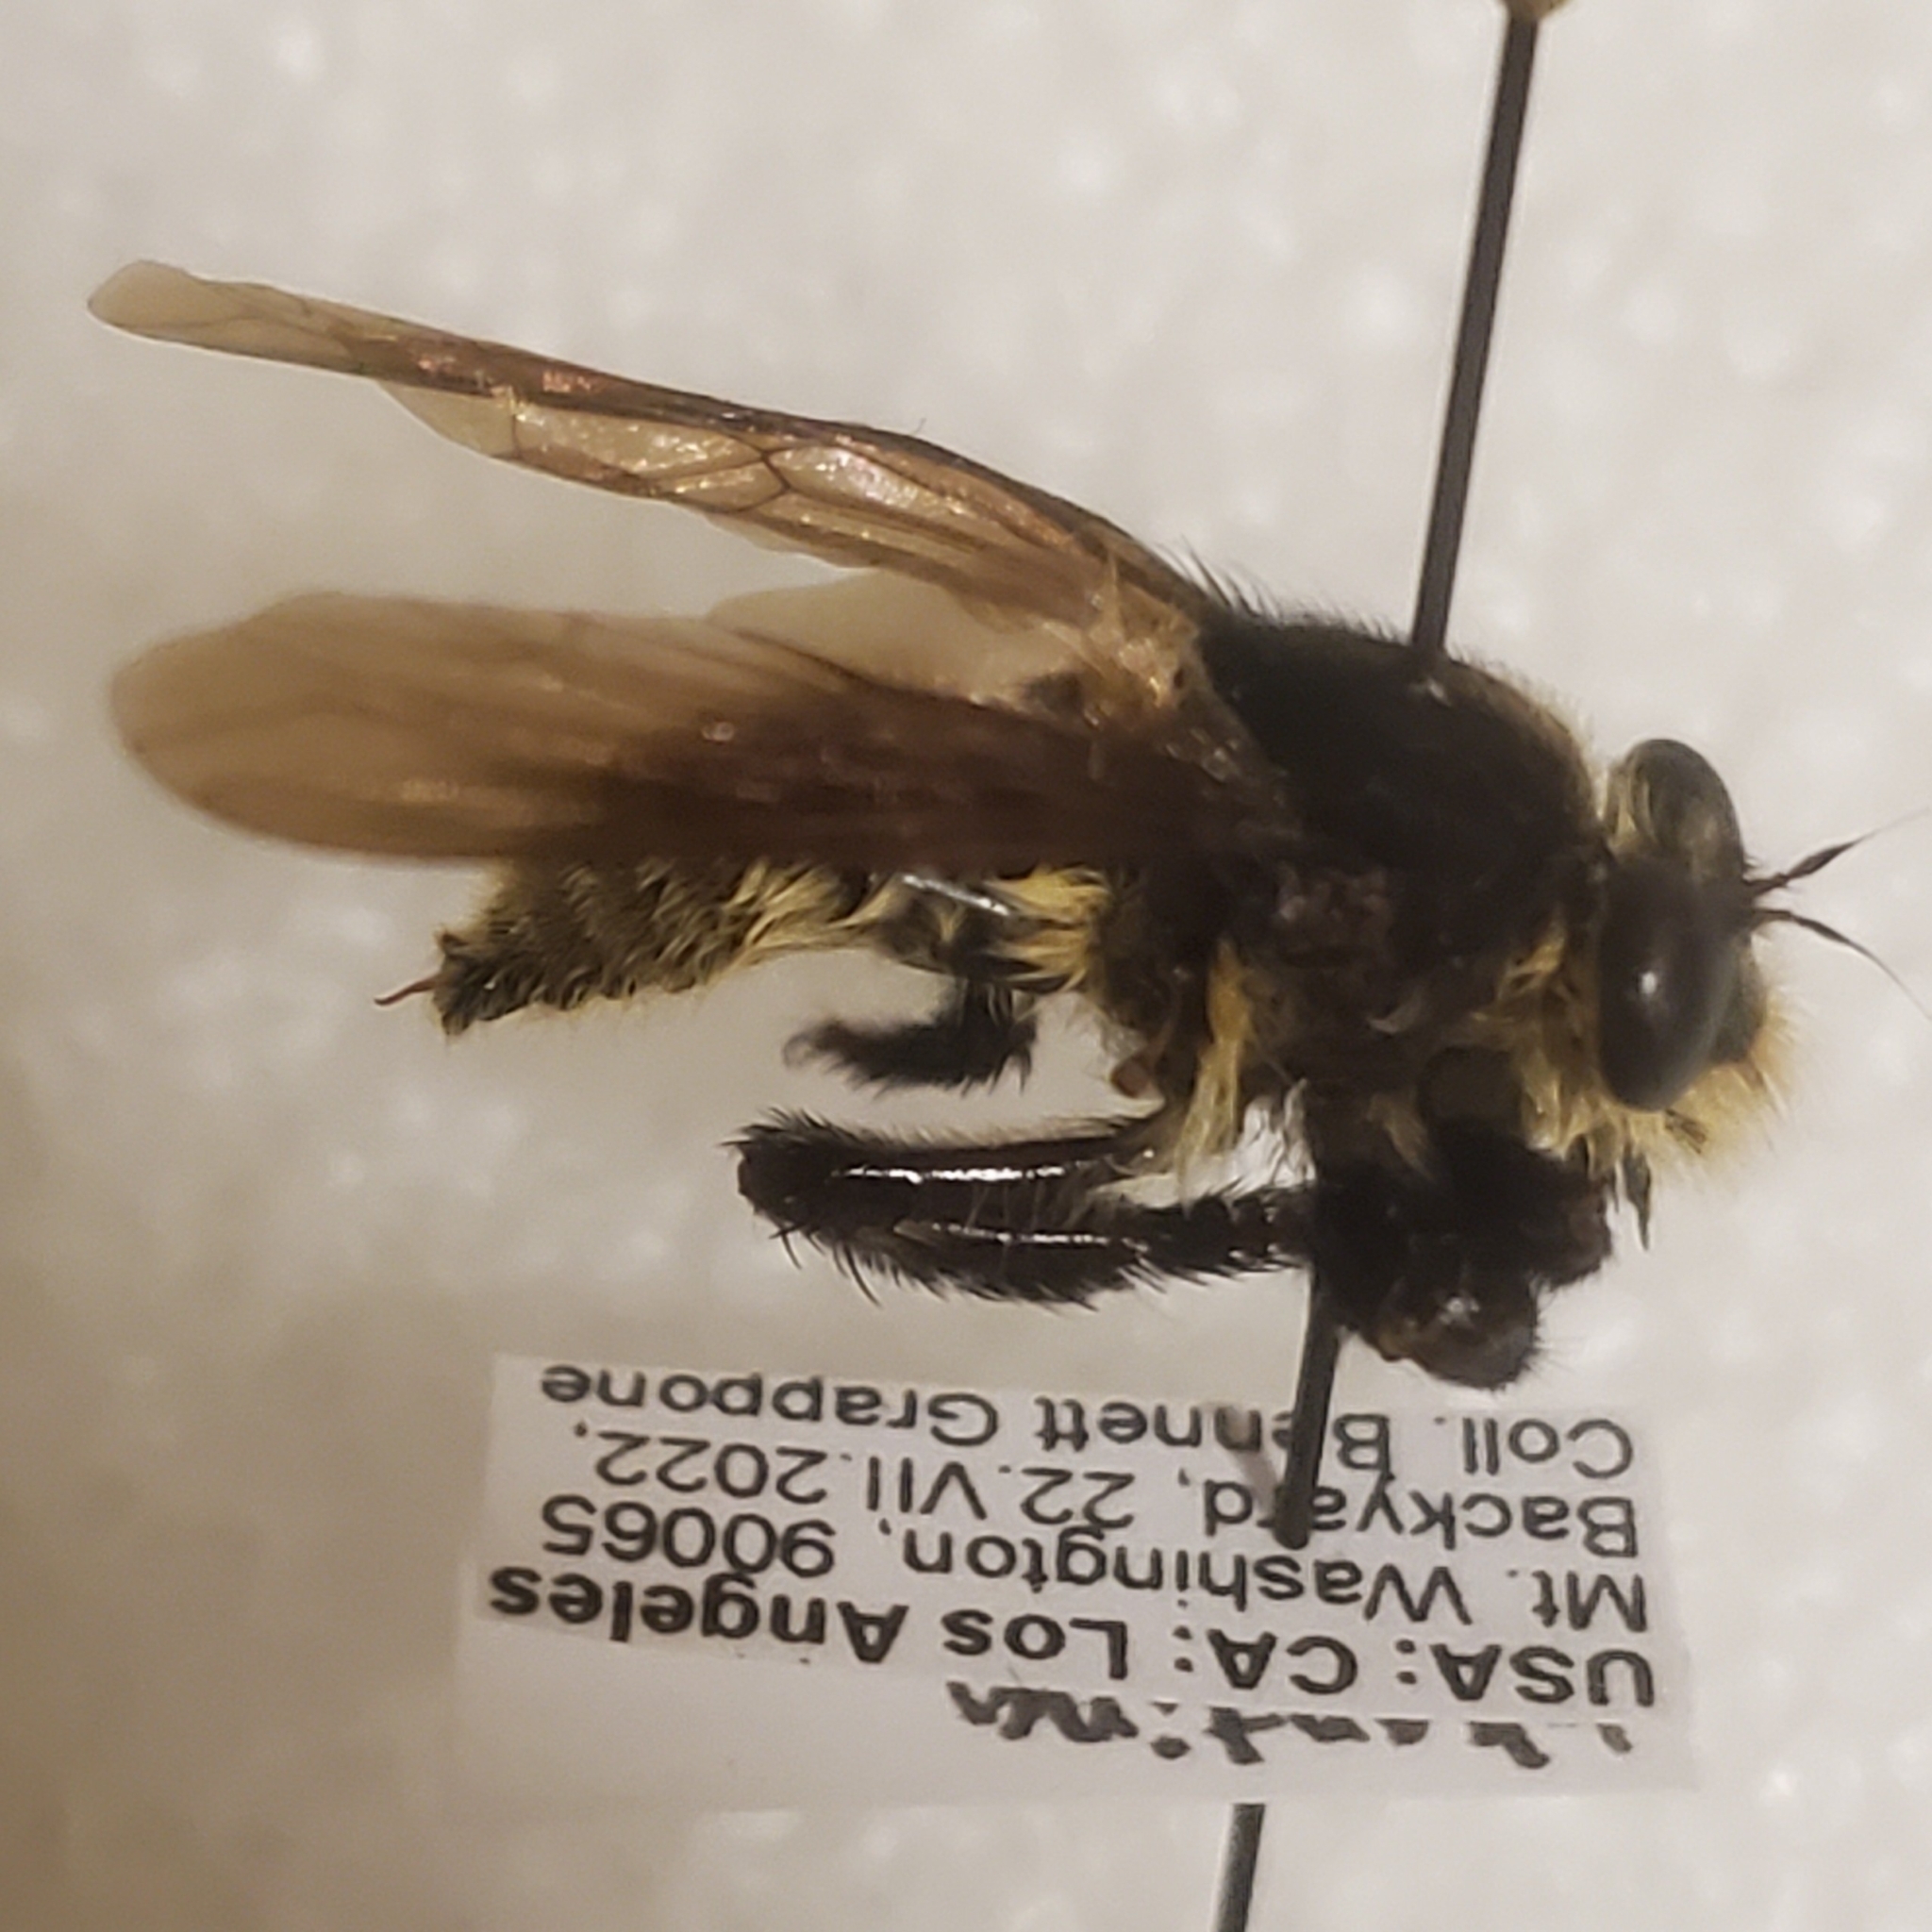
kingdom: Animalia
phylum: Arthropoda
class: Insecta
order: Diptera
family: Asilidae
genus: Mallophora
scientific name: Mallophora fautrix
